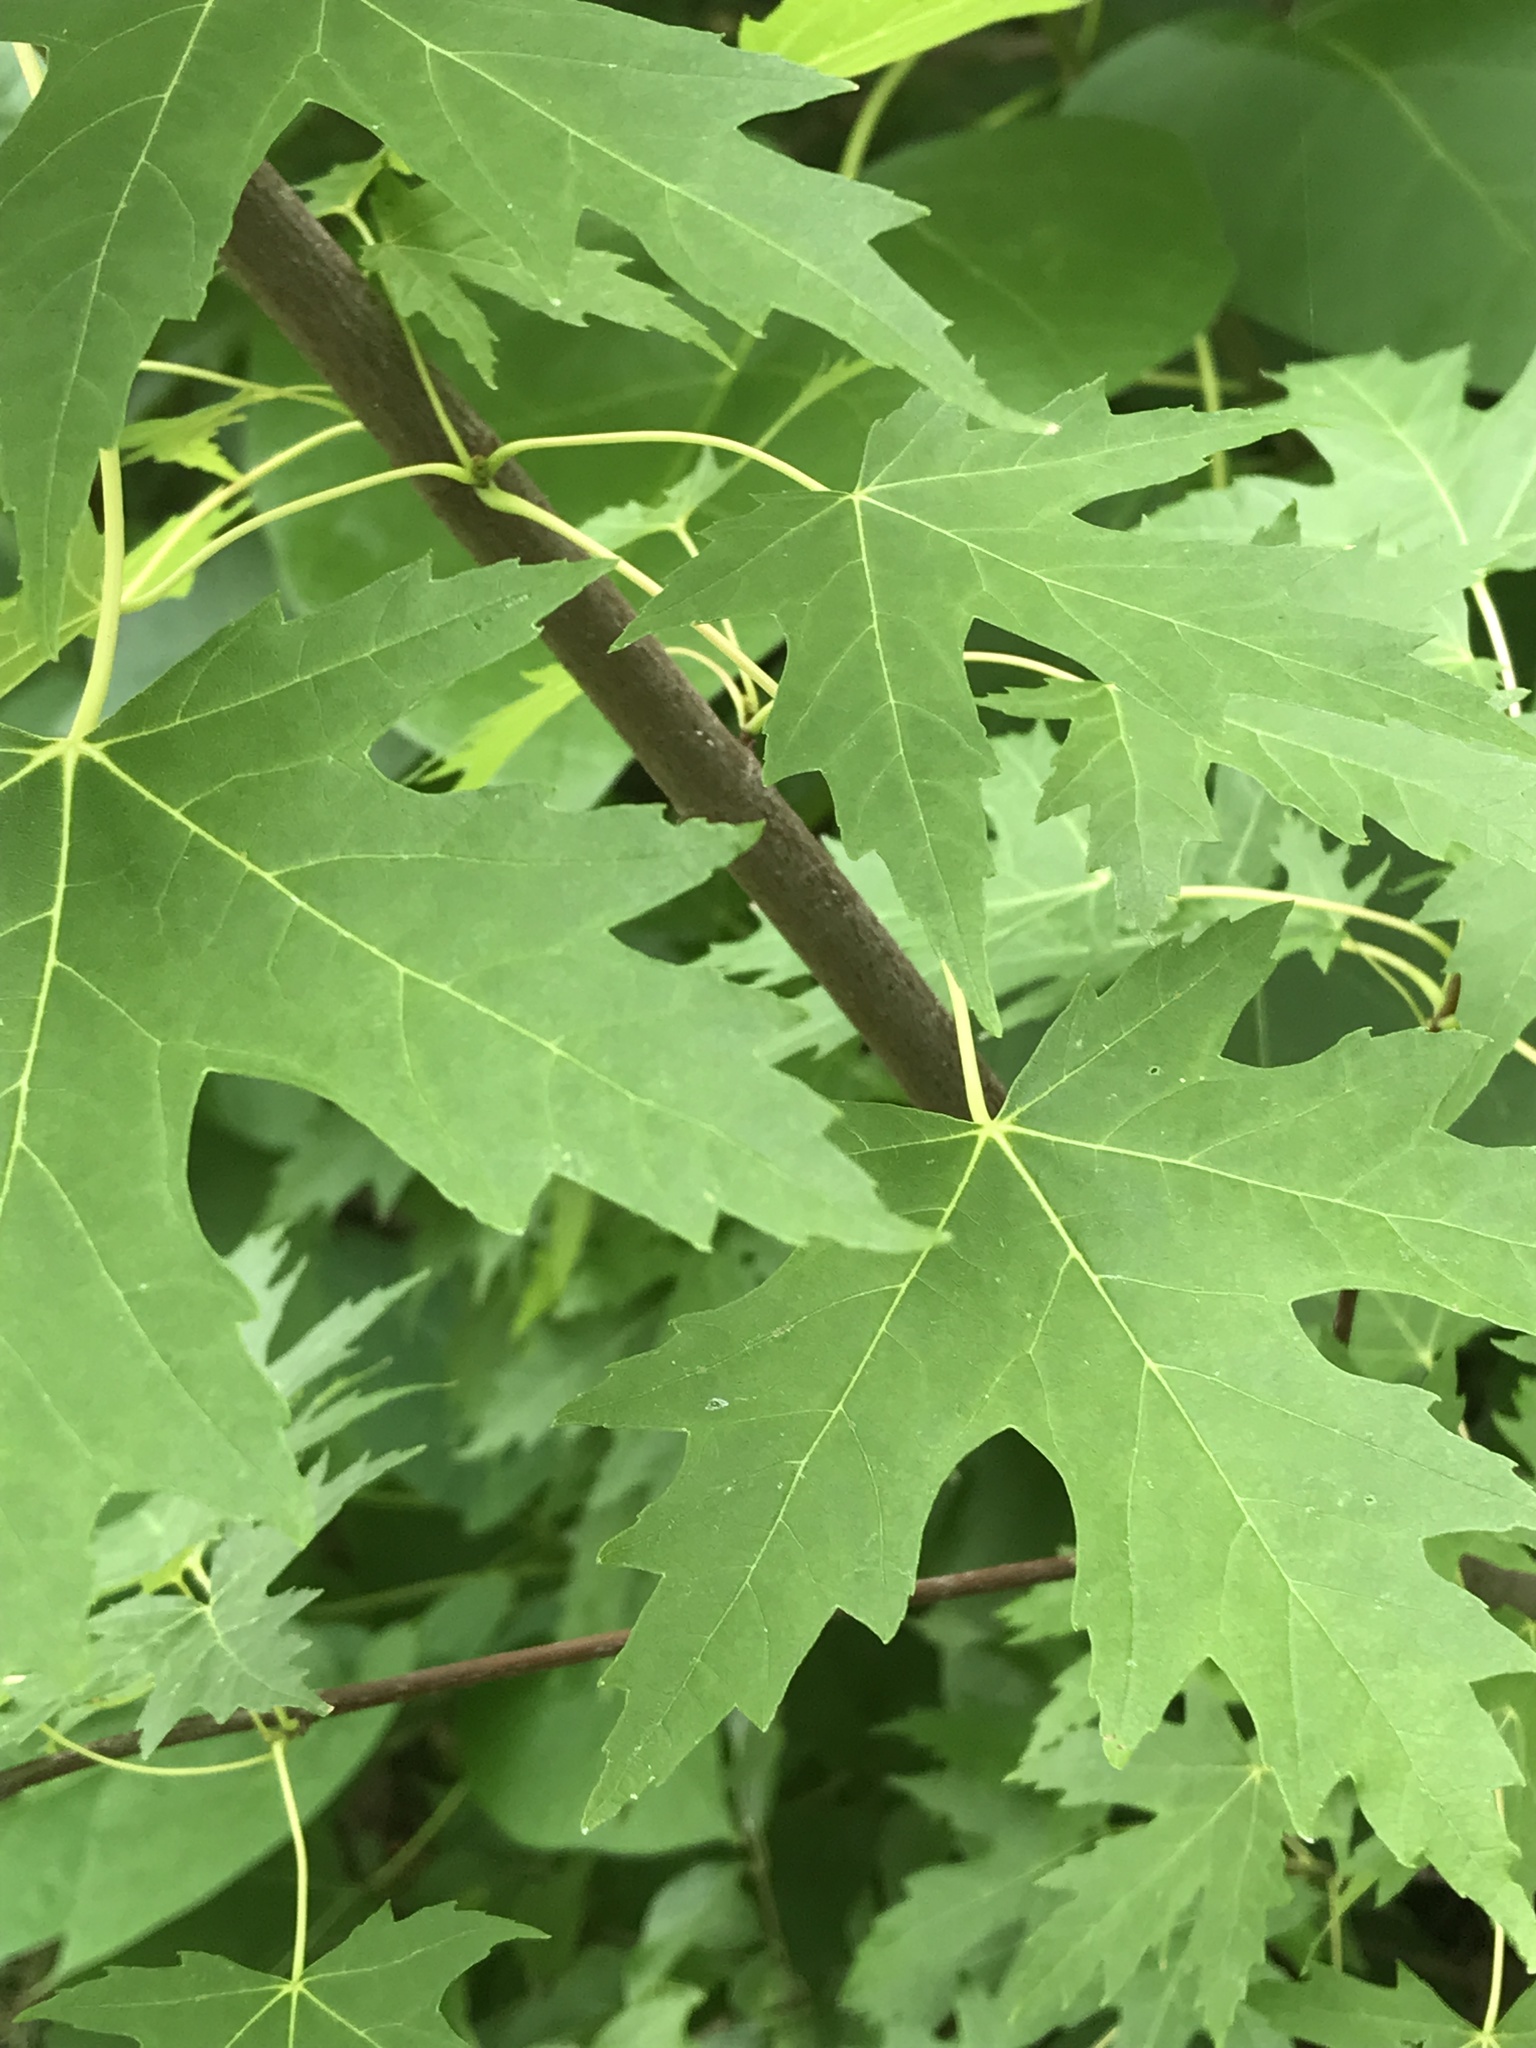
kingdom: Plantae
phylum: Tracheophyta
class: Magnoliopsida
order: Sapindales
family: Sapindaceae
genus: Acer
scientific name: Acer saccharinum
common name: Silver maple
